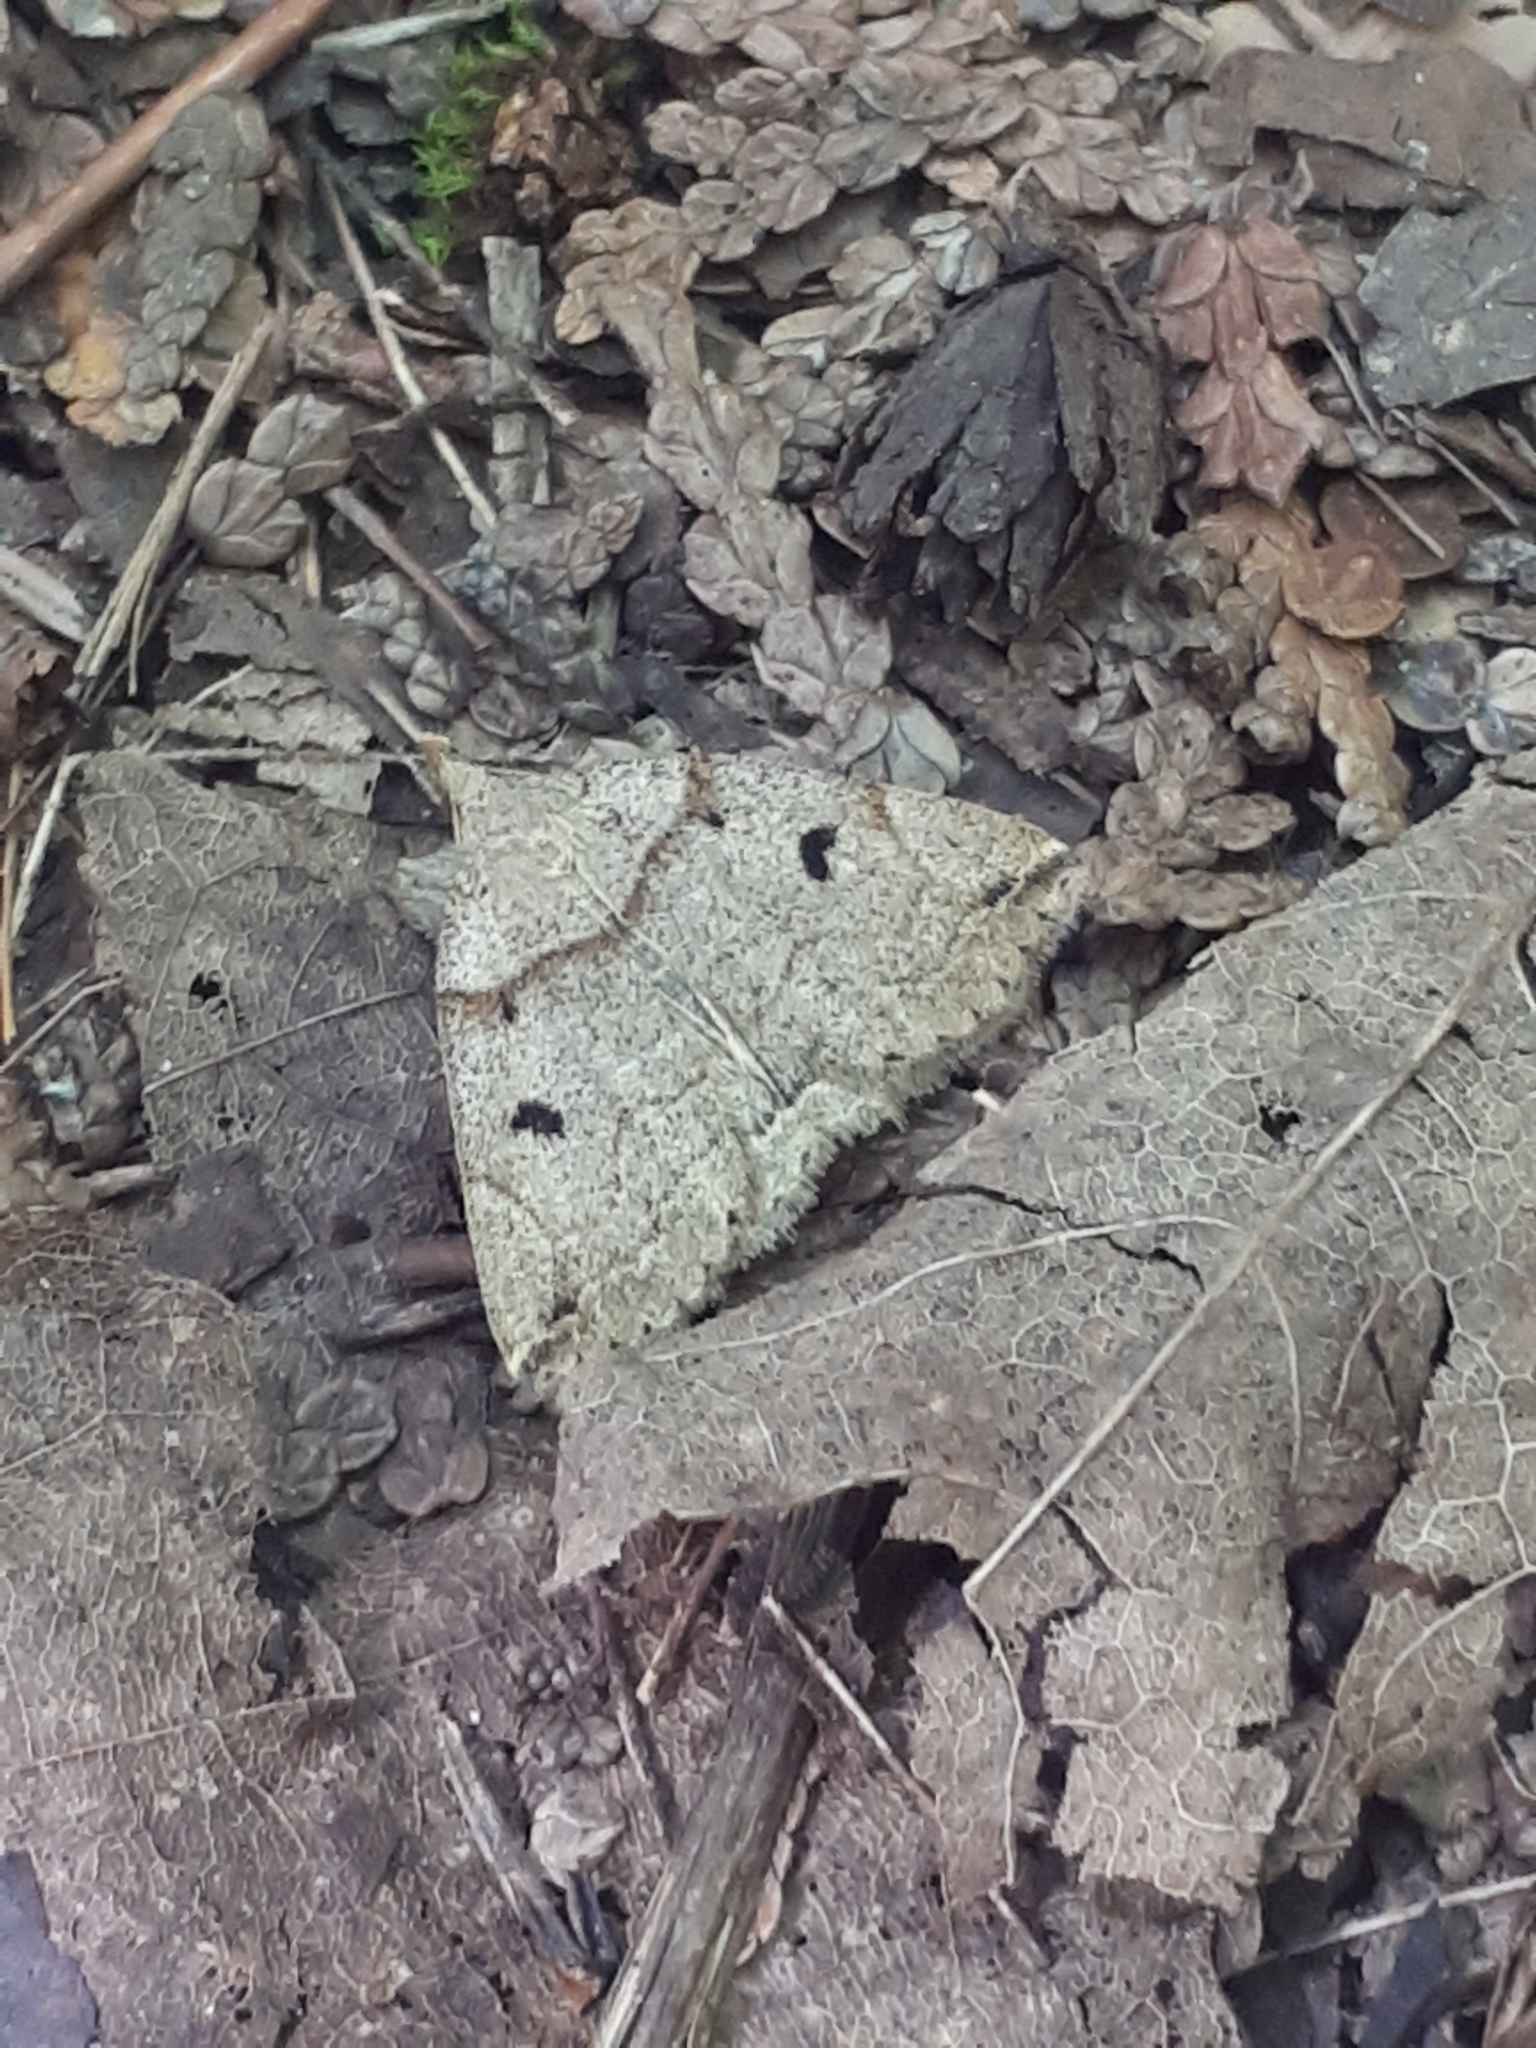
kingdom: Animalia
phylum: Arthropoda
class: Insecta
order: Lepidoptera
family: Erebidae
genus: Zanclognatha
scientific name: Zanclognatha laevigata
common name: Variable fan-foot
